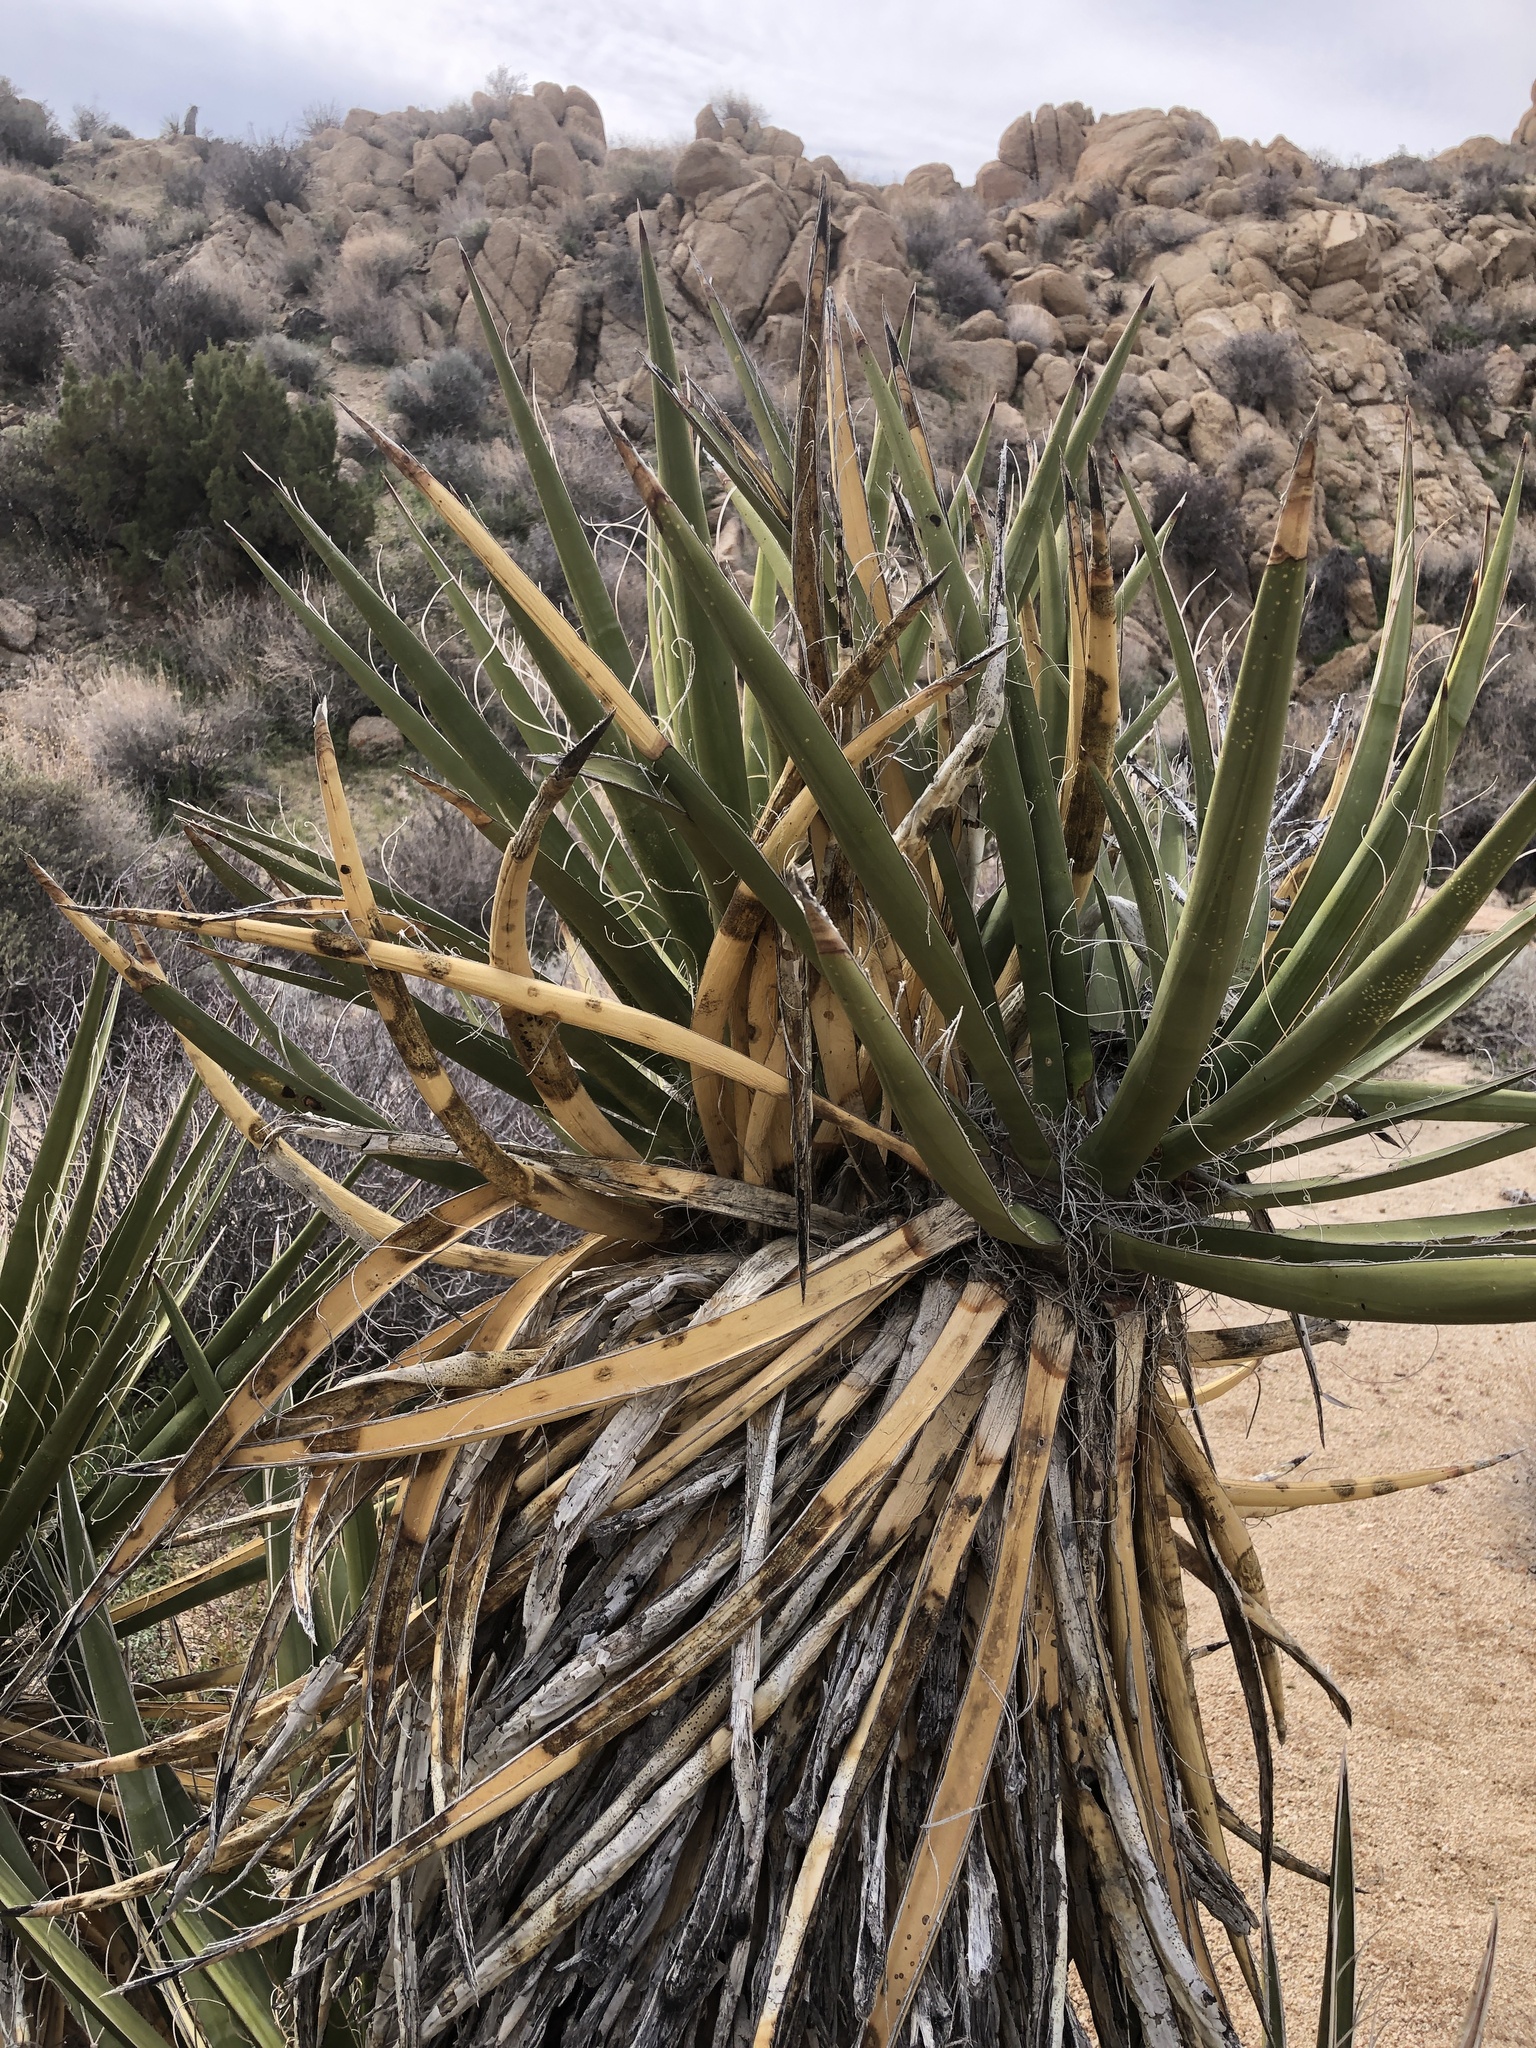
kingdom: Plantae
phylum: Tracheophyta
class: Liliopsida
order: Asparagales
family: Asparagaceae
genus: Yucca
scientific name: Yucca schidigera
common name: Mojave yucca
